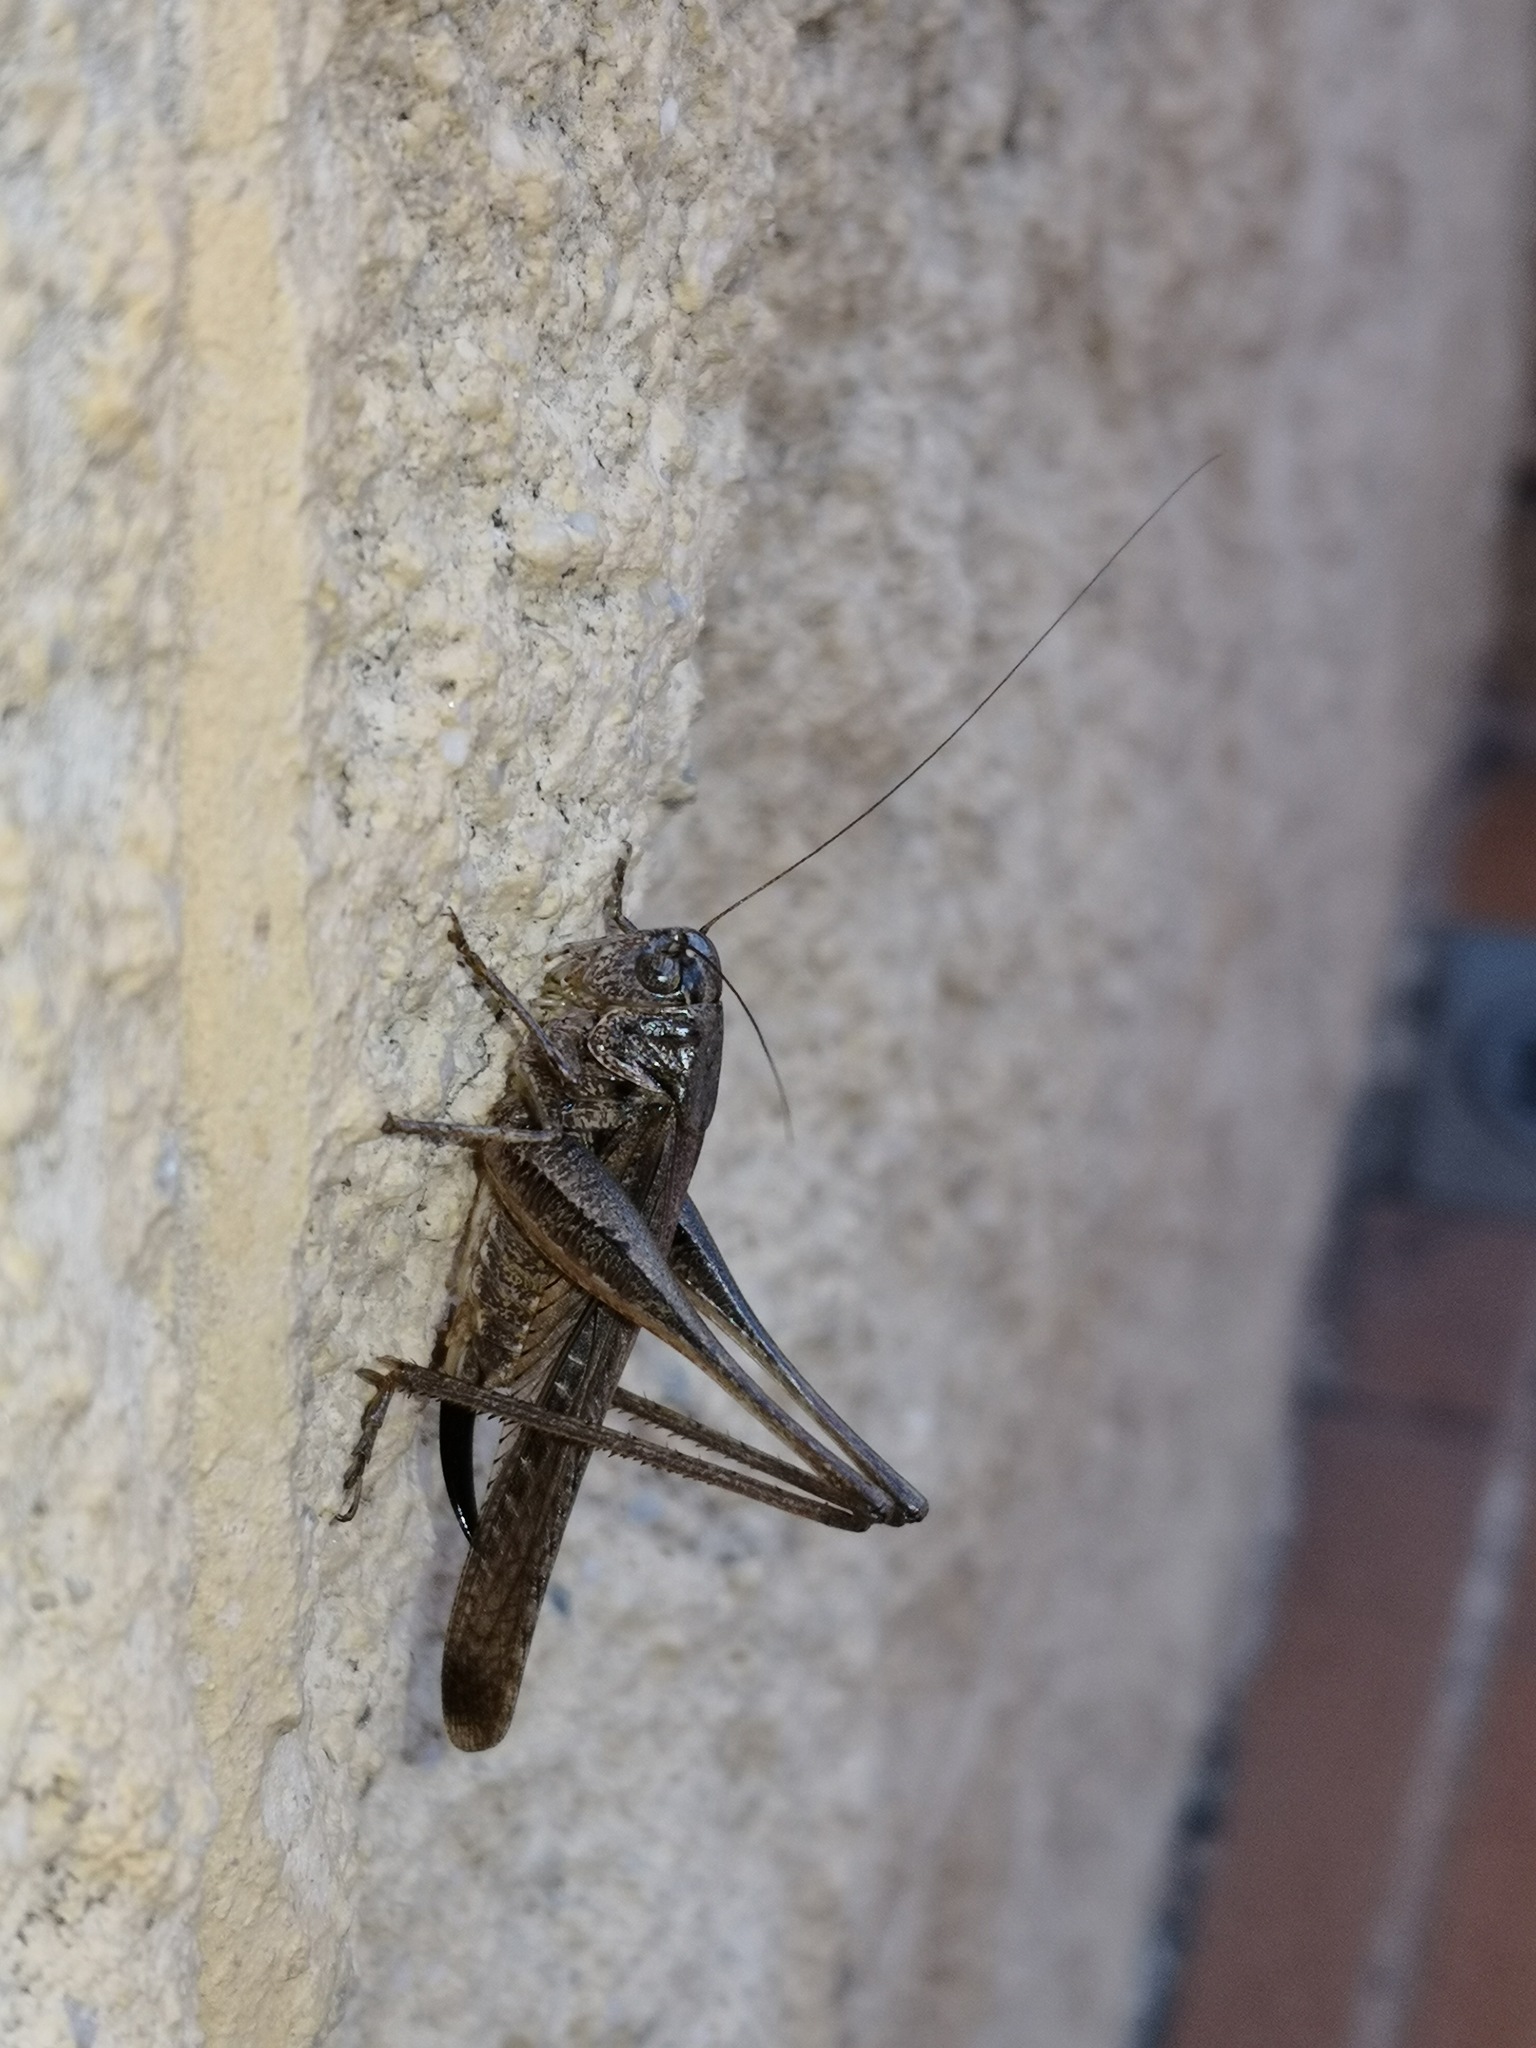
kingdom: Animalia
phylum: Arthropoda
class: Insecta
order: Orthoptera
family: Tettigoniidae
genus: Platycleis
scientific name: Platycleis sabulosa
